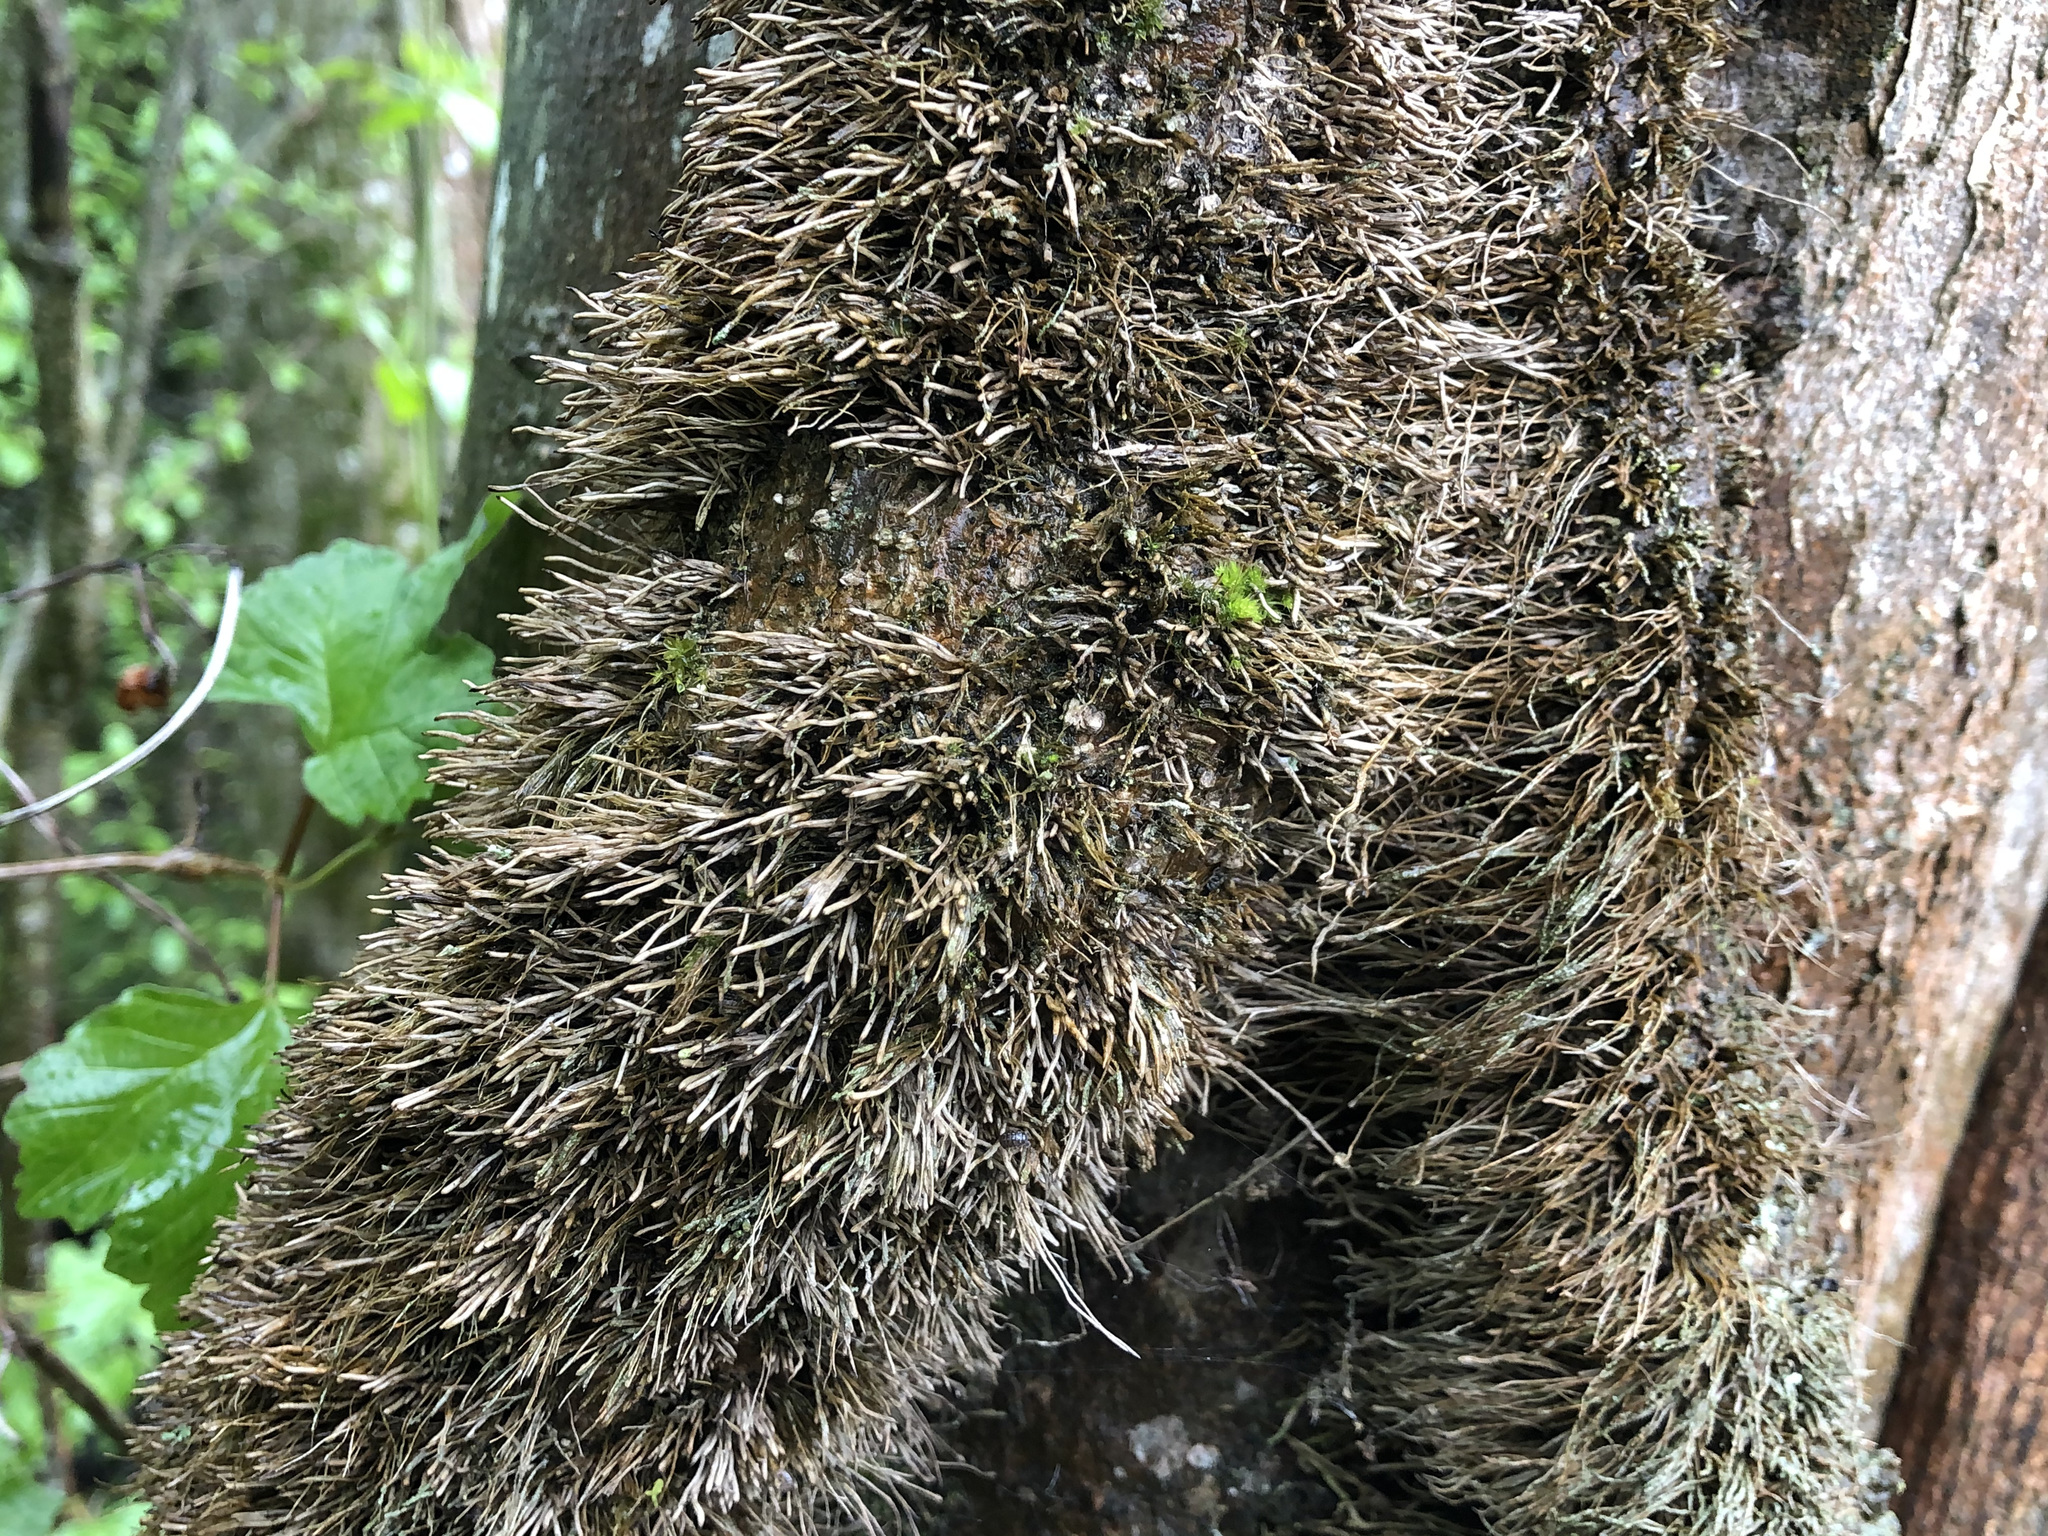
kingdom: Plantae
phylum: Tracheophyta
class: Magnoliopsida
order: Apiales
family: Araliaceae
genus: Hedera
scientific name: Hedera helix
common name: Ivy
